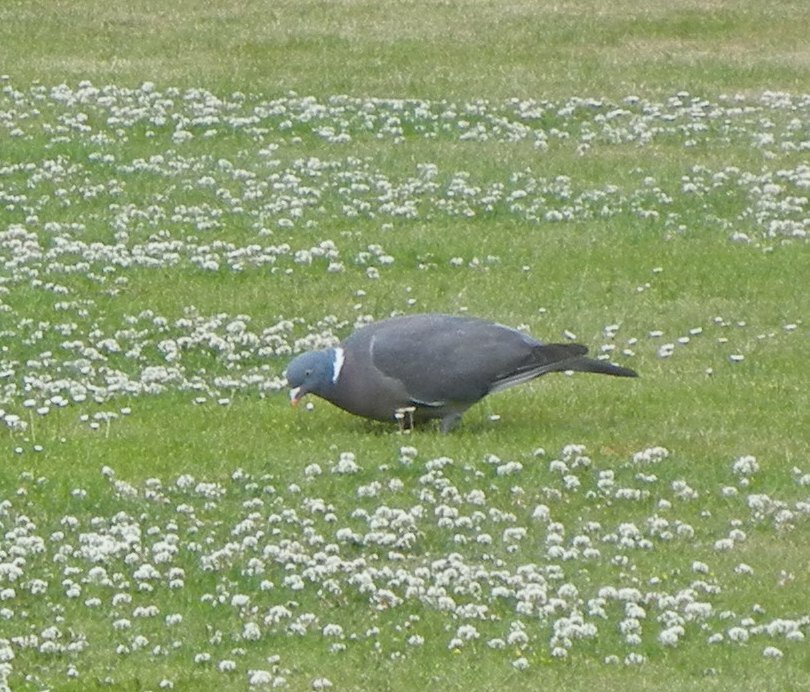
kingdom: Animalia
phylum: Chordata
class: Aves
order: Columbiformes
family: Columbidae
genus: Columba
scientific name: Columba palumbus
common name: Common wood pigeon
